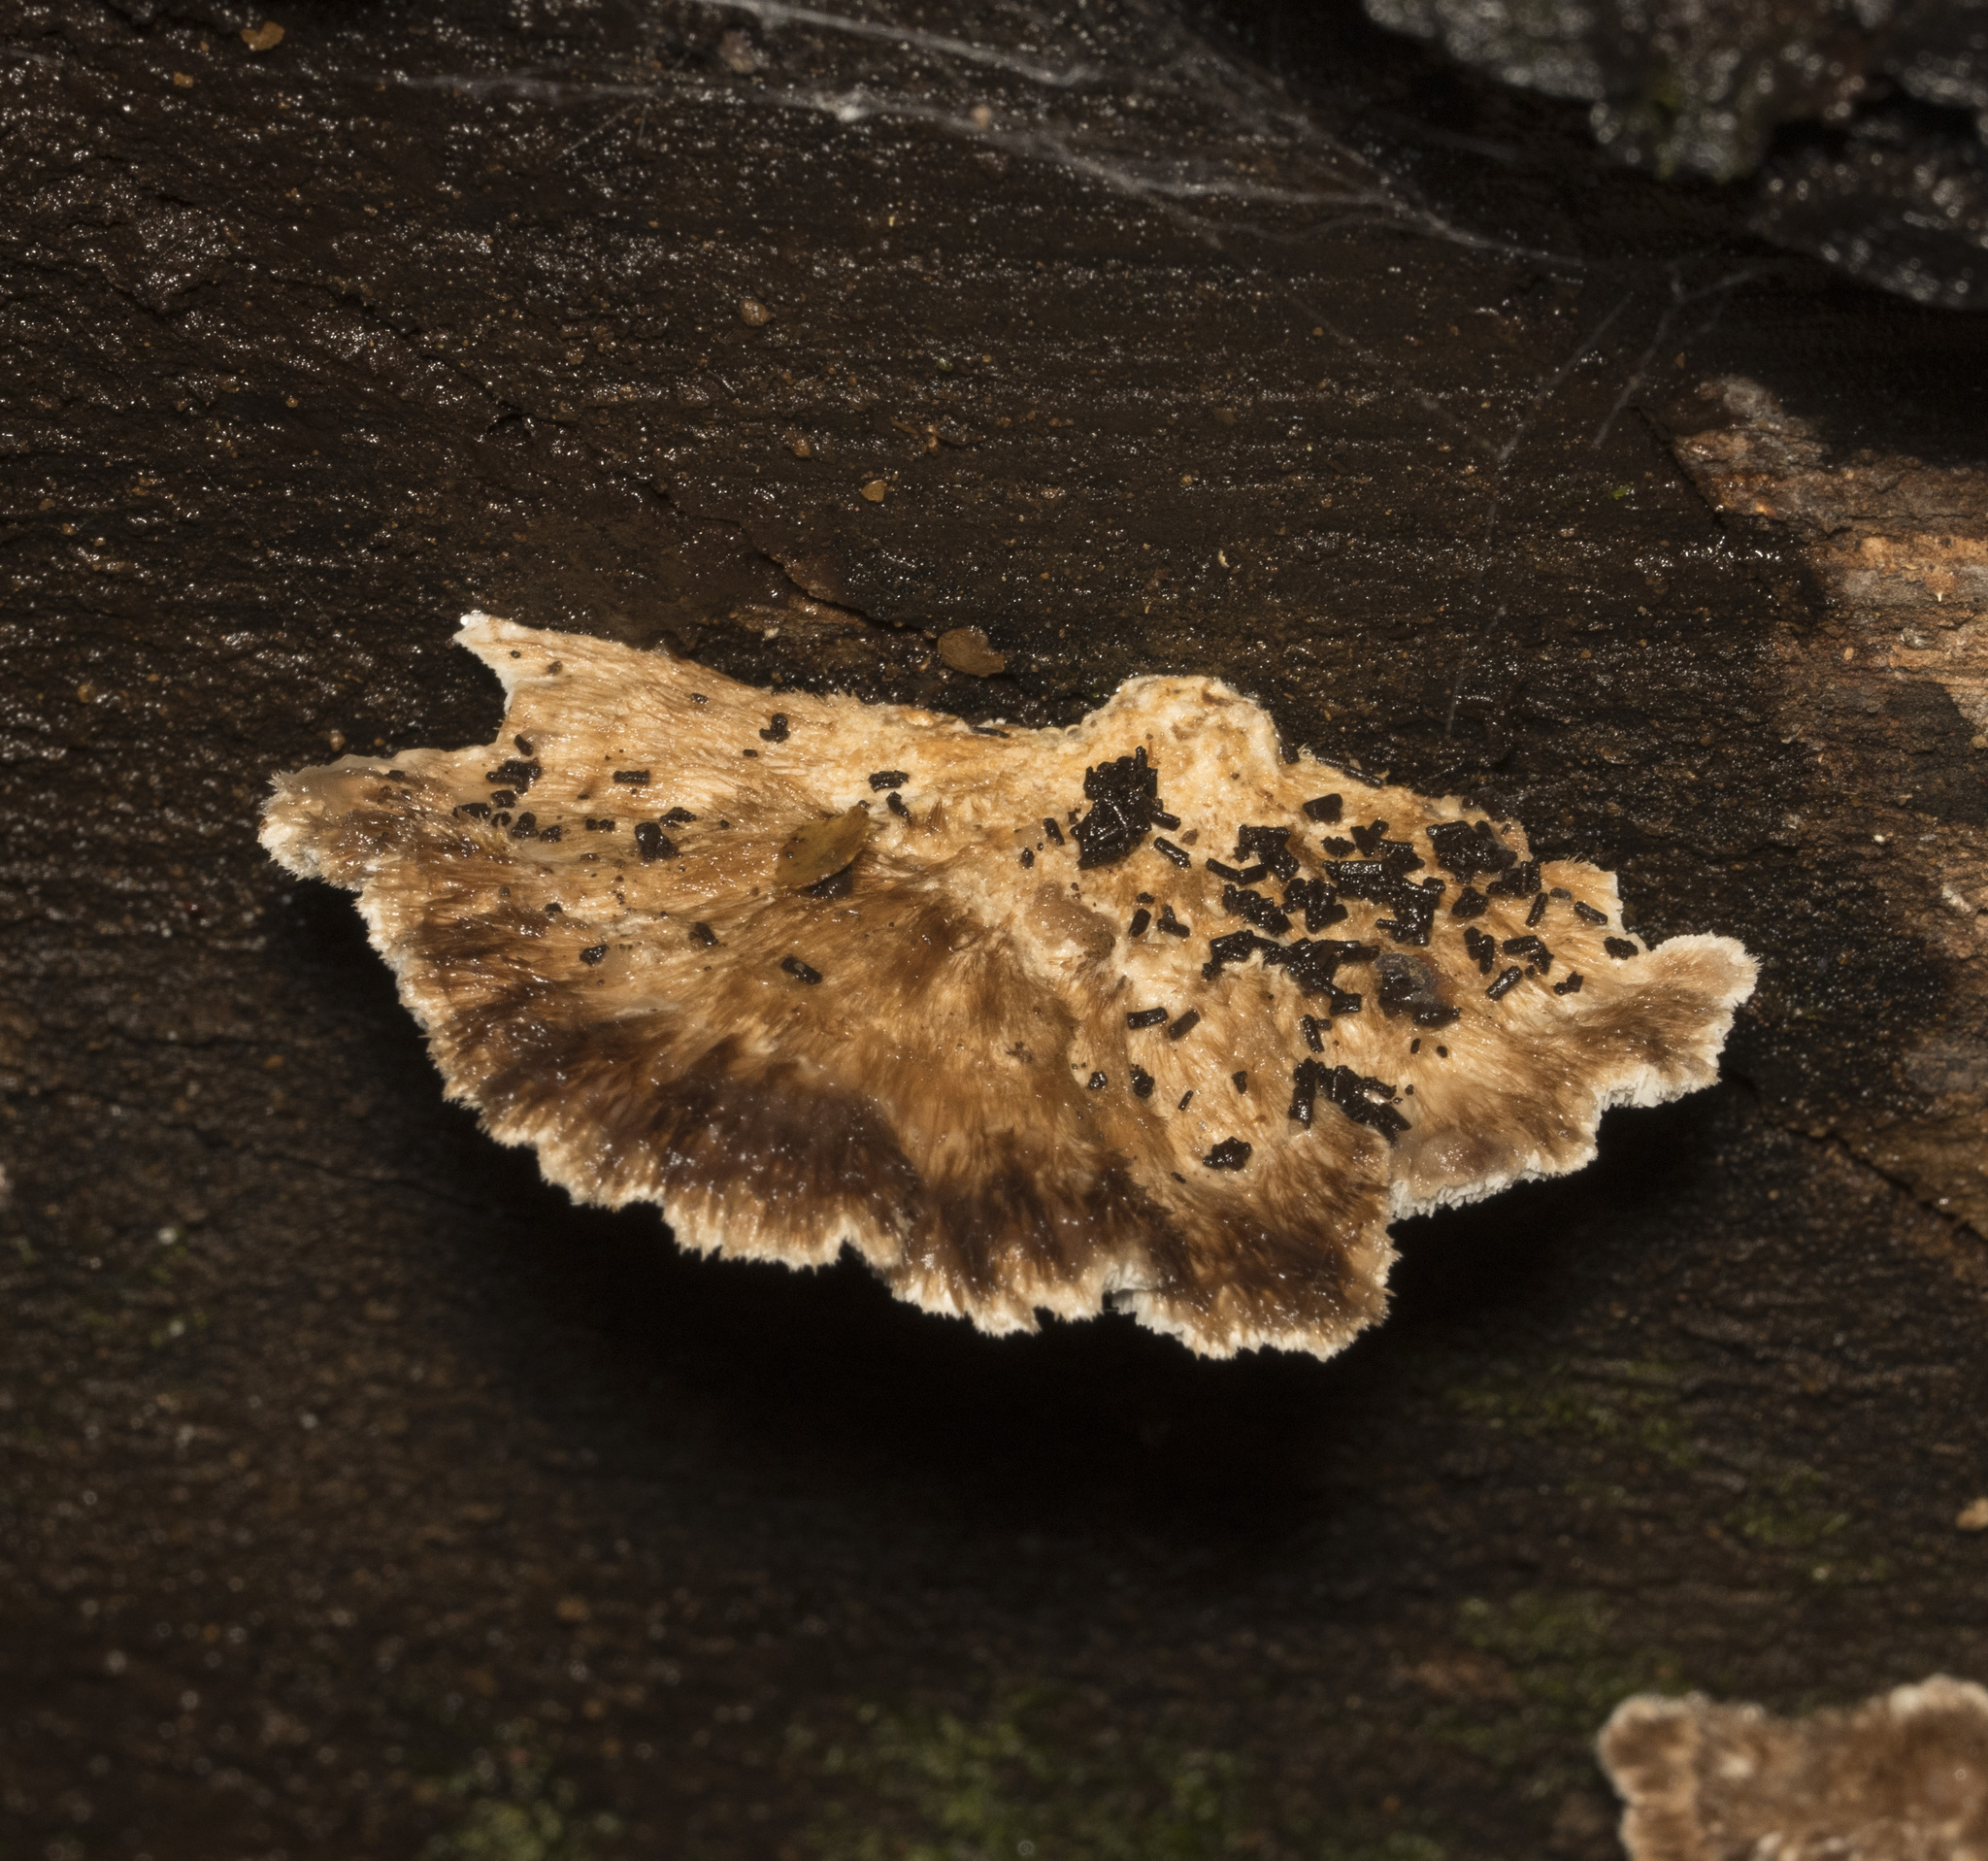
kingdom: Fungi
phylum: Basidiomycota
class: Agaricomycetes
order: Polyporales
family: Postiaceae
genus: Nothofagiporus
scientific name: Nothofagiporus venatus
